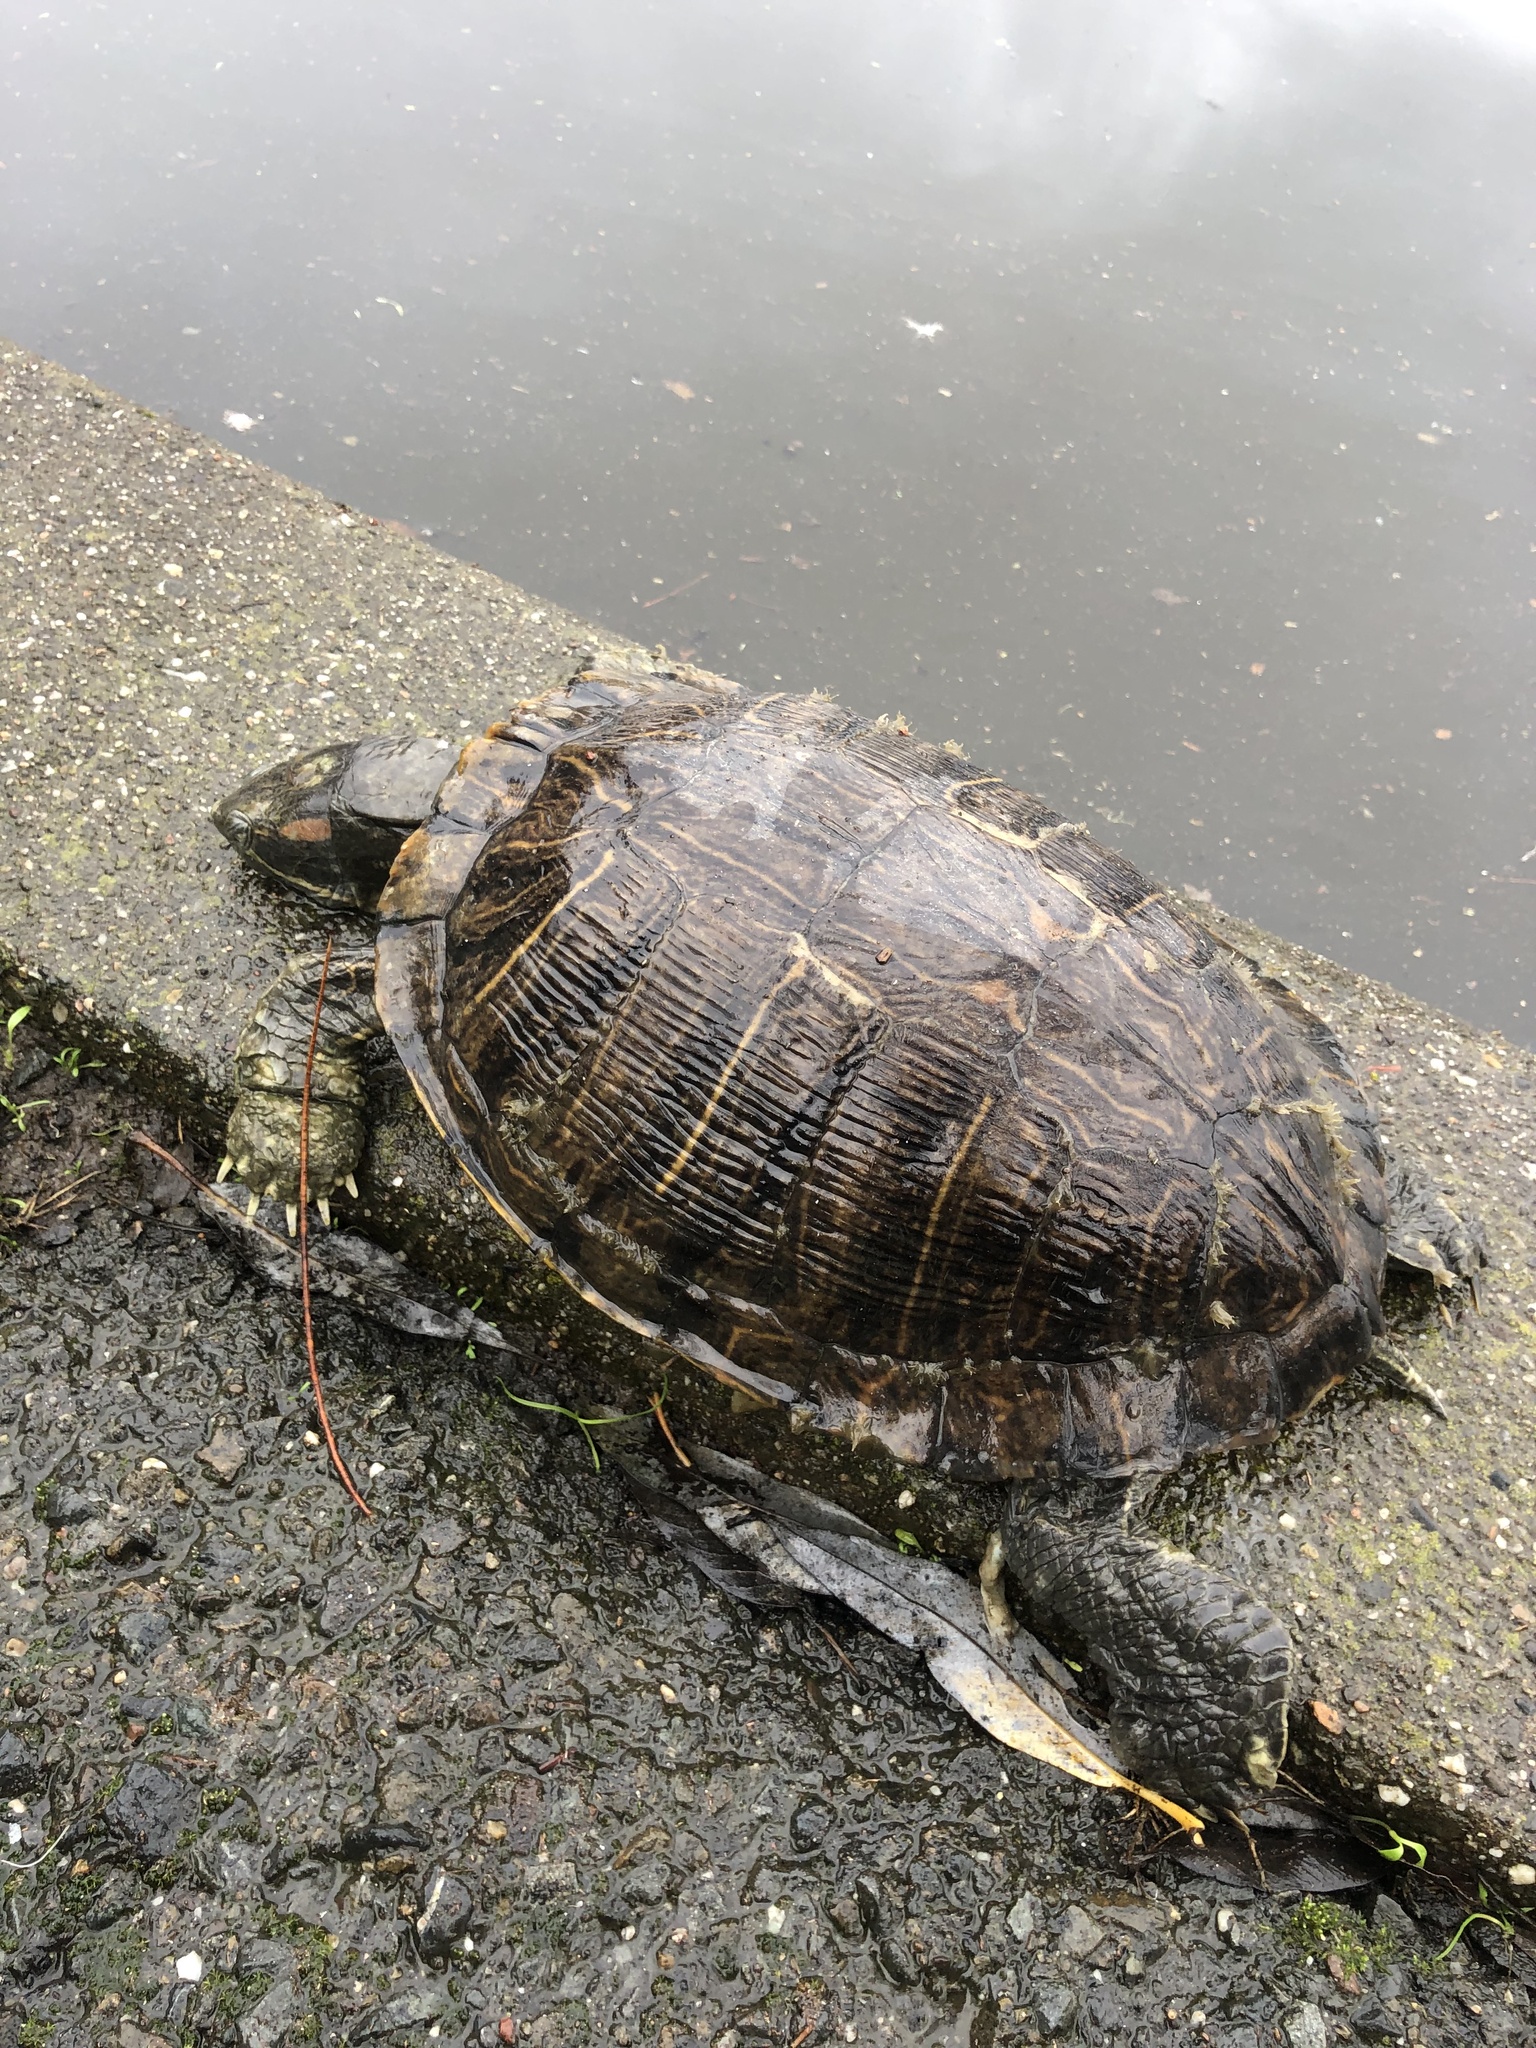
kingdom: Animalia
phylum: Chordata
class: Testudines
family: Emydidae
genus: Trachemys
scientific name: Trachemys scripta
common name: Slider
